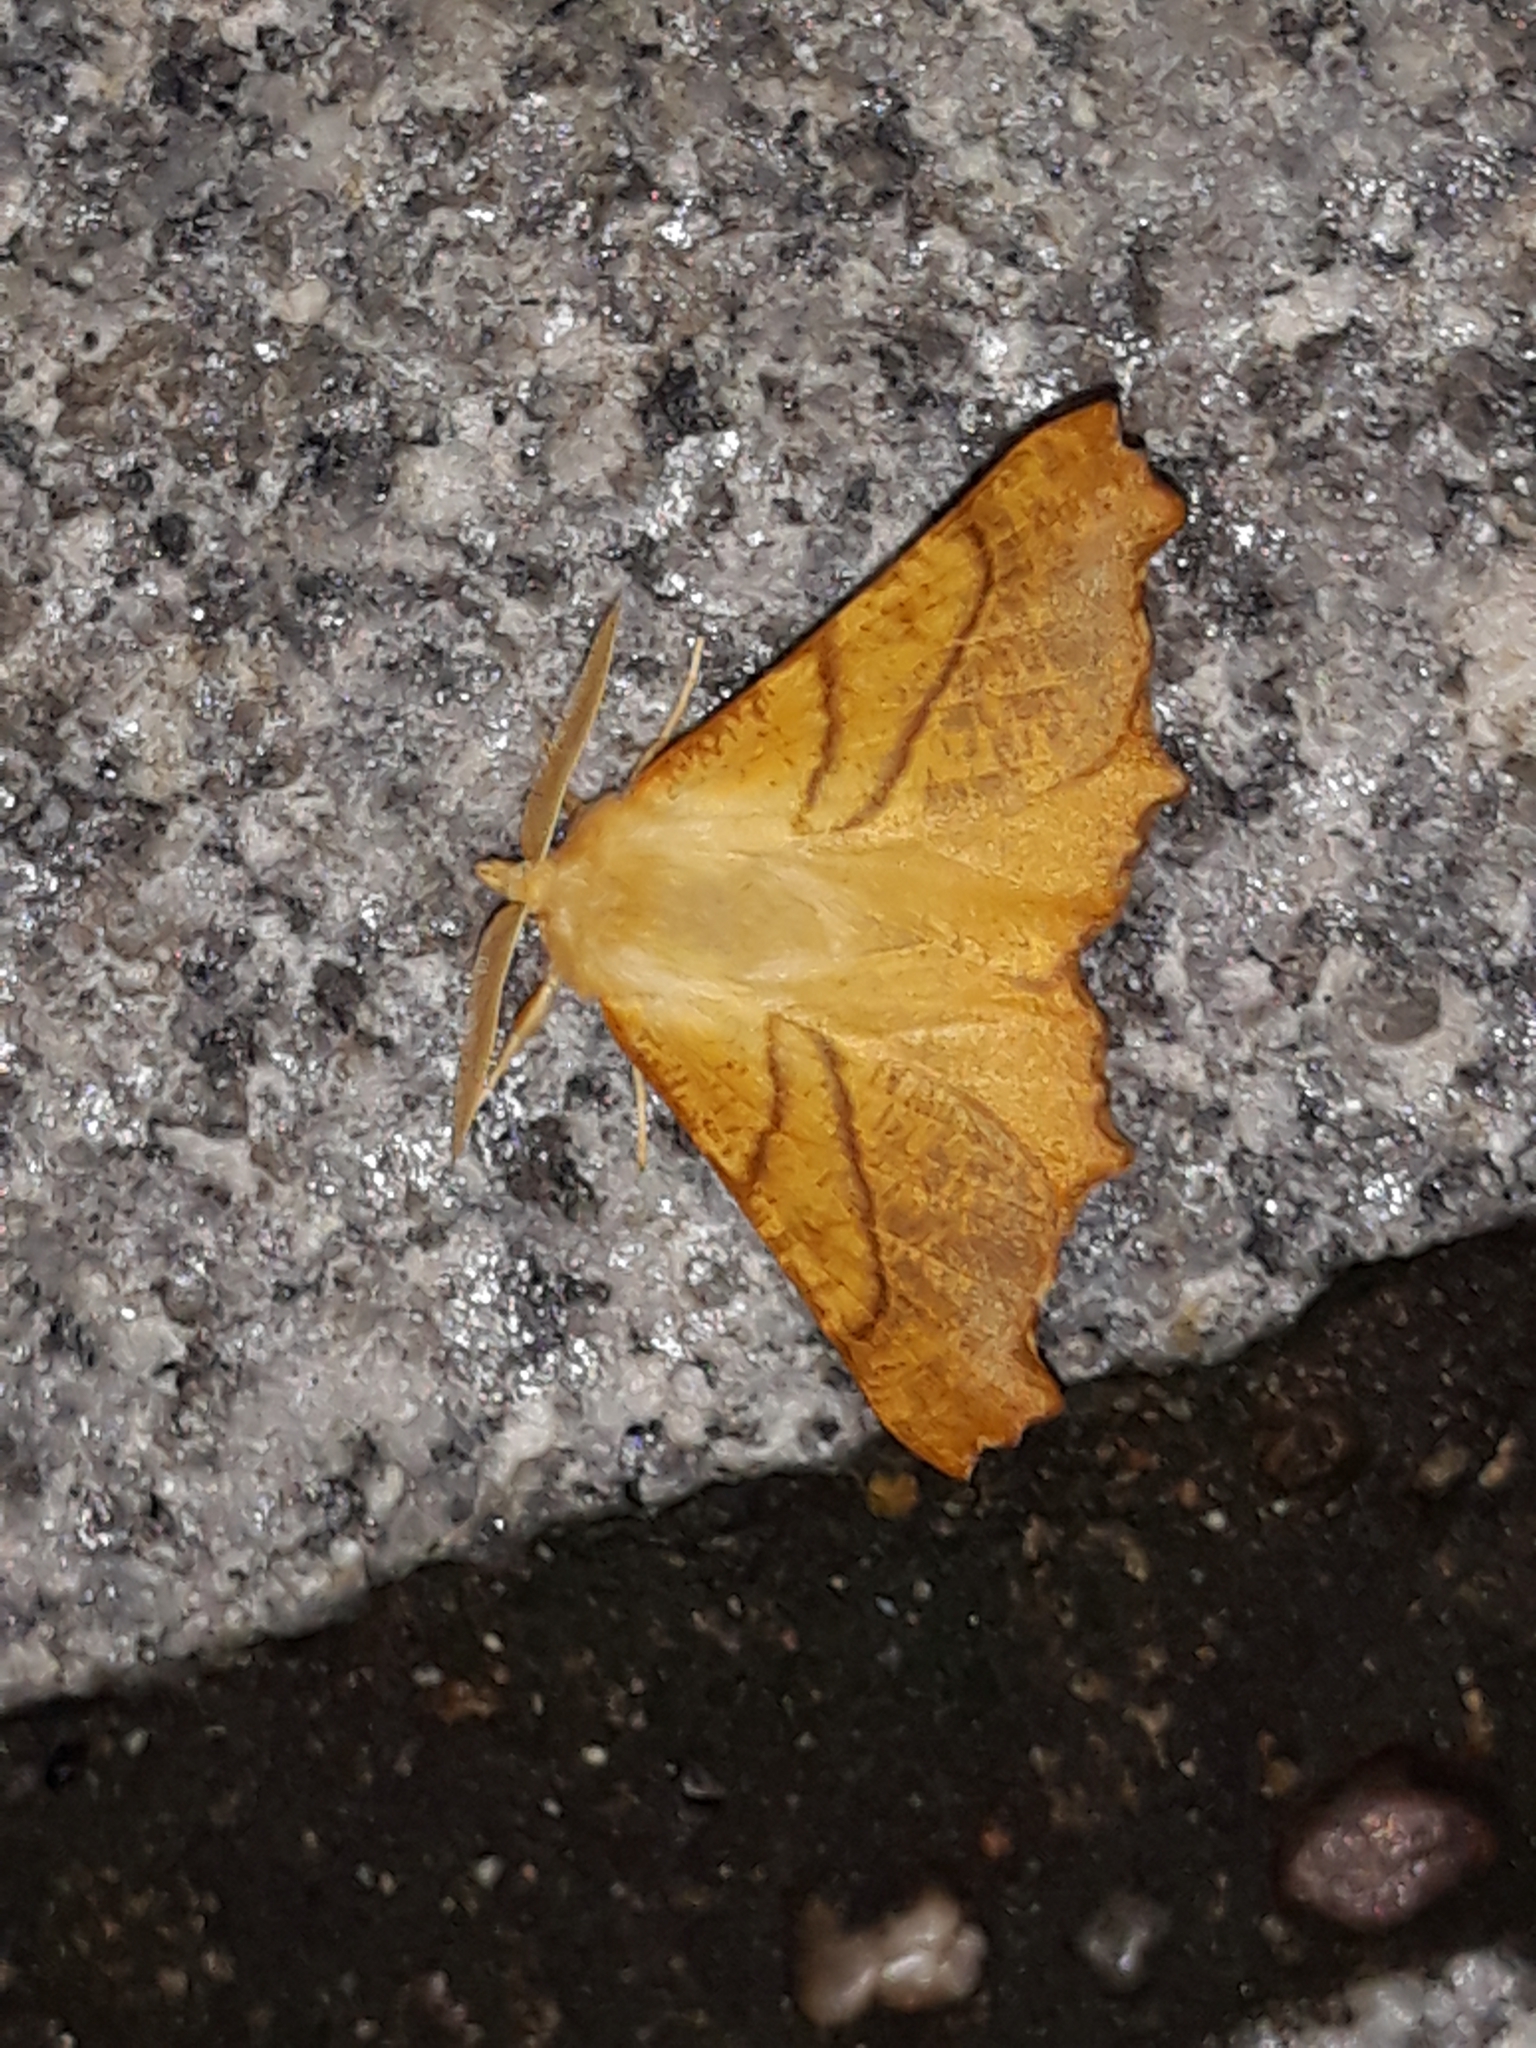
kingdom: Animalia
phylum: Arthropoda
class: Insecta
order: Lepidoptera
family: Geometridae
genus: Ennomos
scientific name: Ennomos fuscantaria
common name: Dusky thorn
